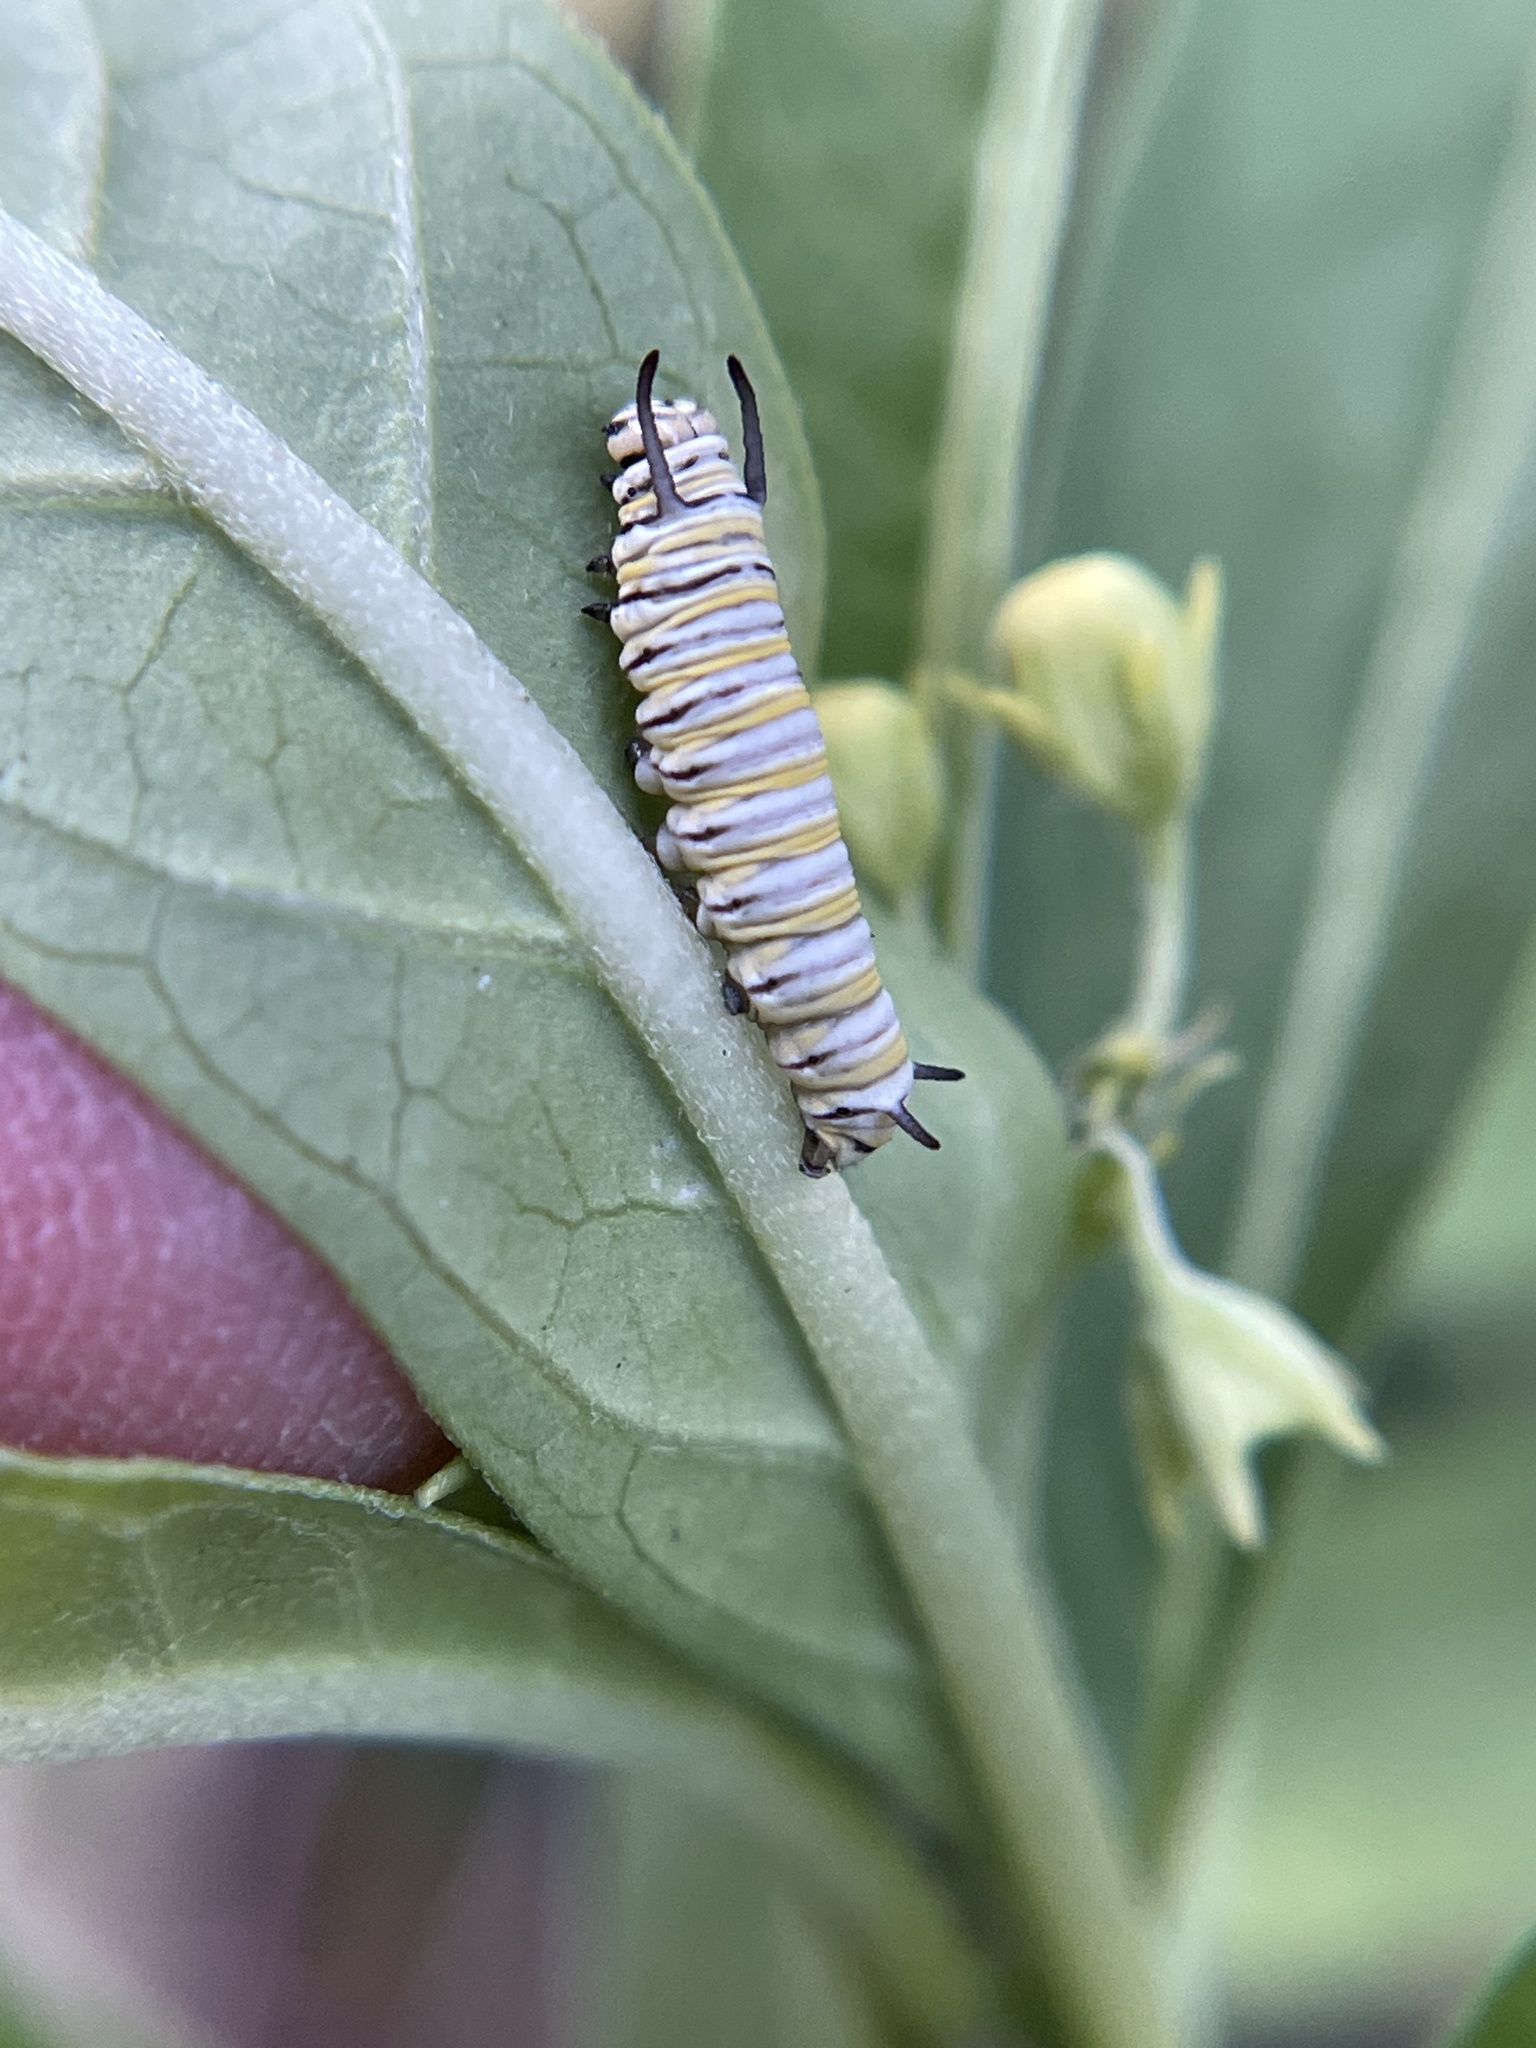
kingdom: Animalia
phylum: Arthropoda
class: Insecta
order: Lepidoptera
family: Nymphalidae
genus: Danaus
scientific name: Danaus plexippus
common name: Monarch
